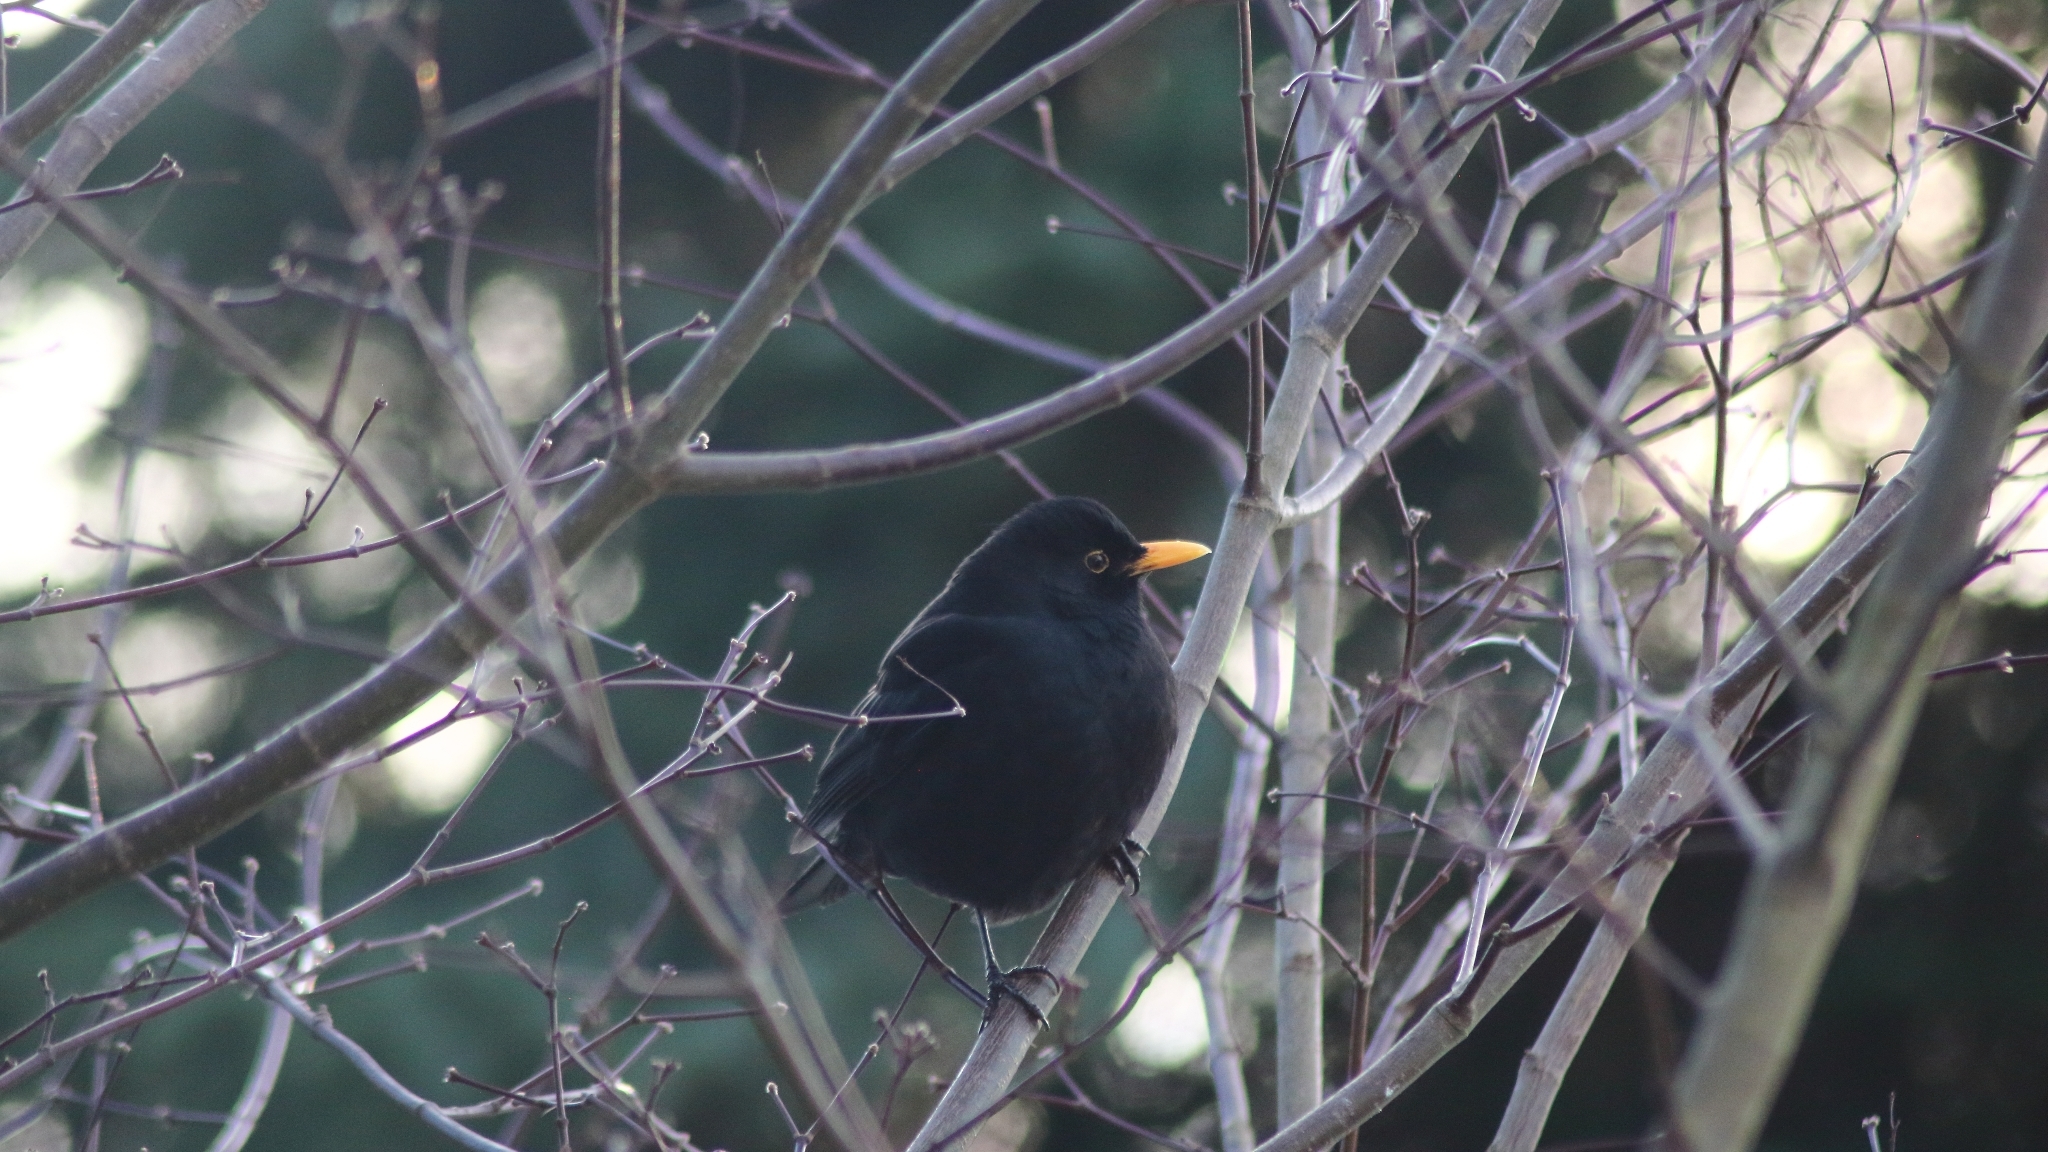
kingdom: Animalia
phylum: Chordata
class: Aves
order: Passeriformes
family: Turdidae
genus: Turdus
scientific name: Turdus merula
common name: Common blackbird
